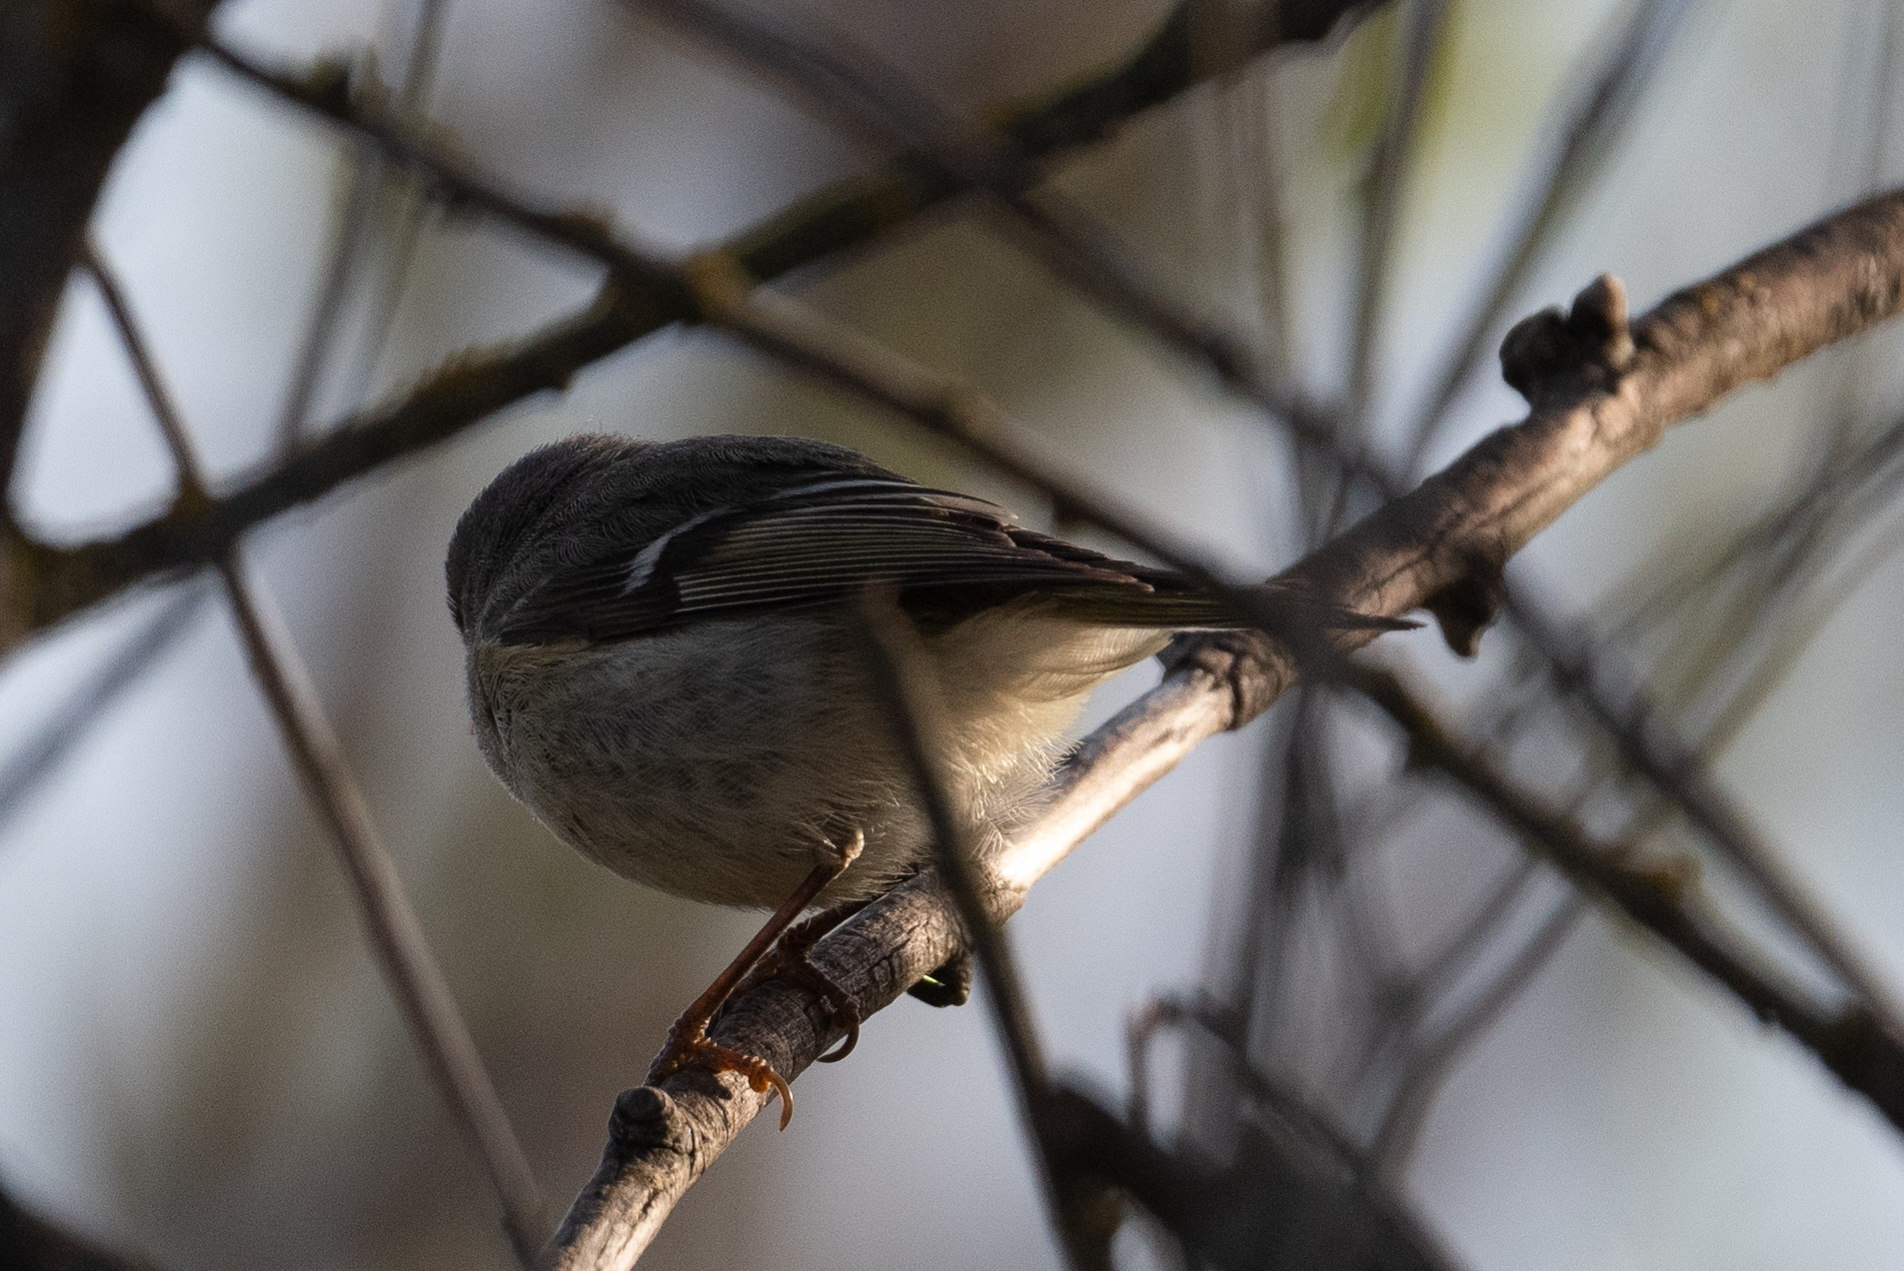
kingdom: Animalia
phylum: Chordata
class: Aves
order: Passeriformes
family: Regulidae
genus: Regulus
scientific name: Regulus calendula
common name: Ruby-crowned kinglet
